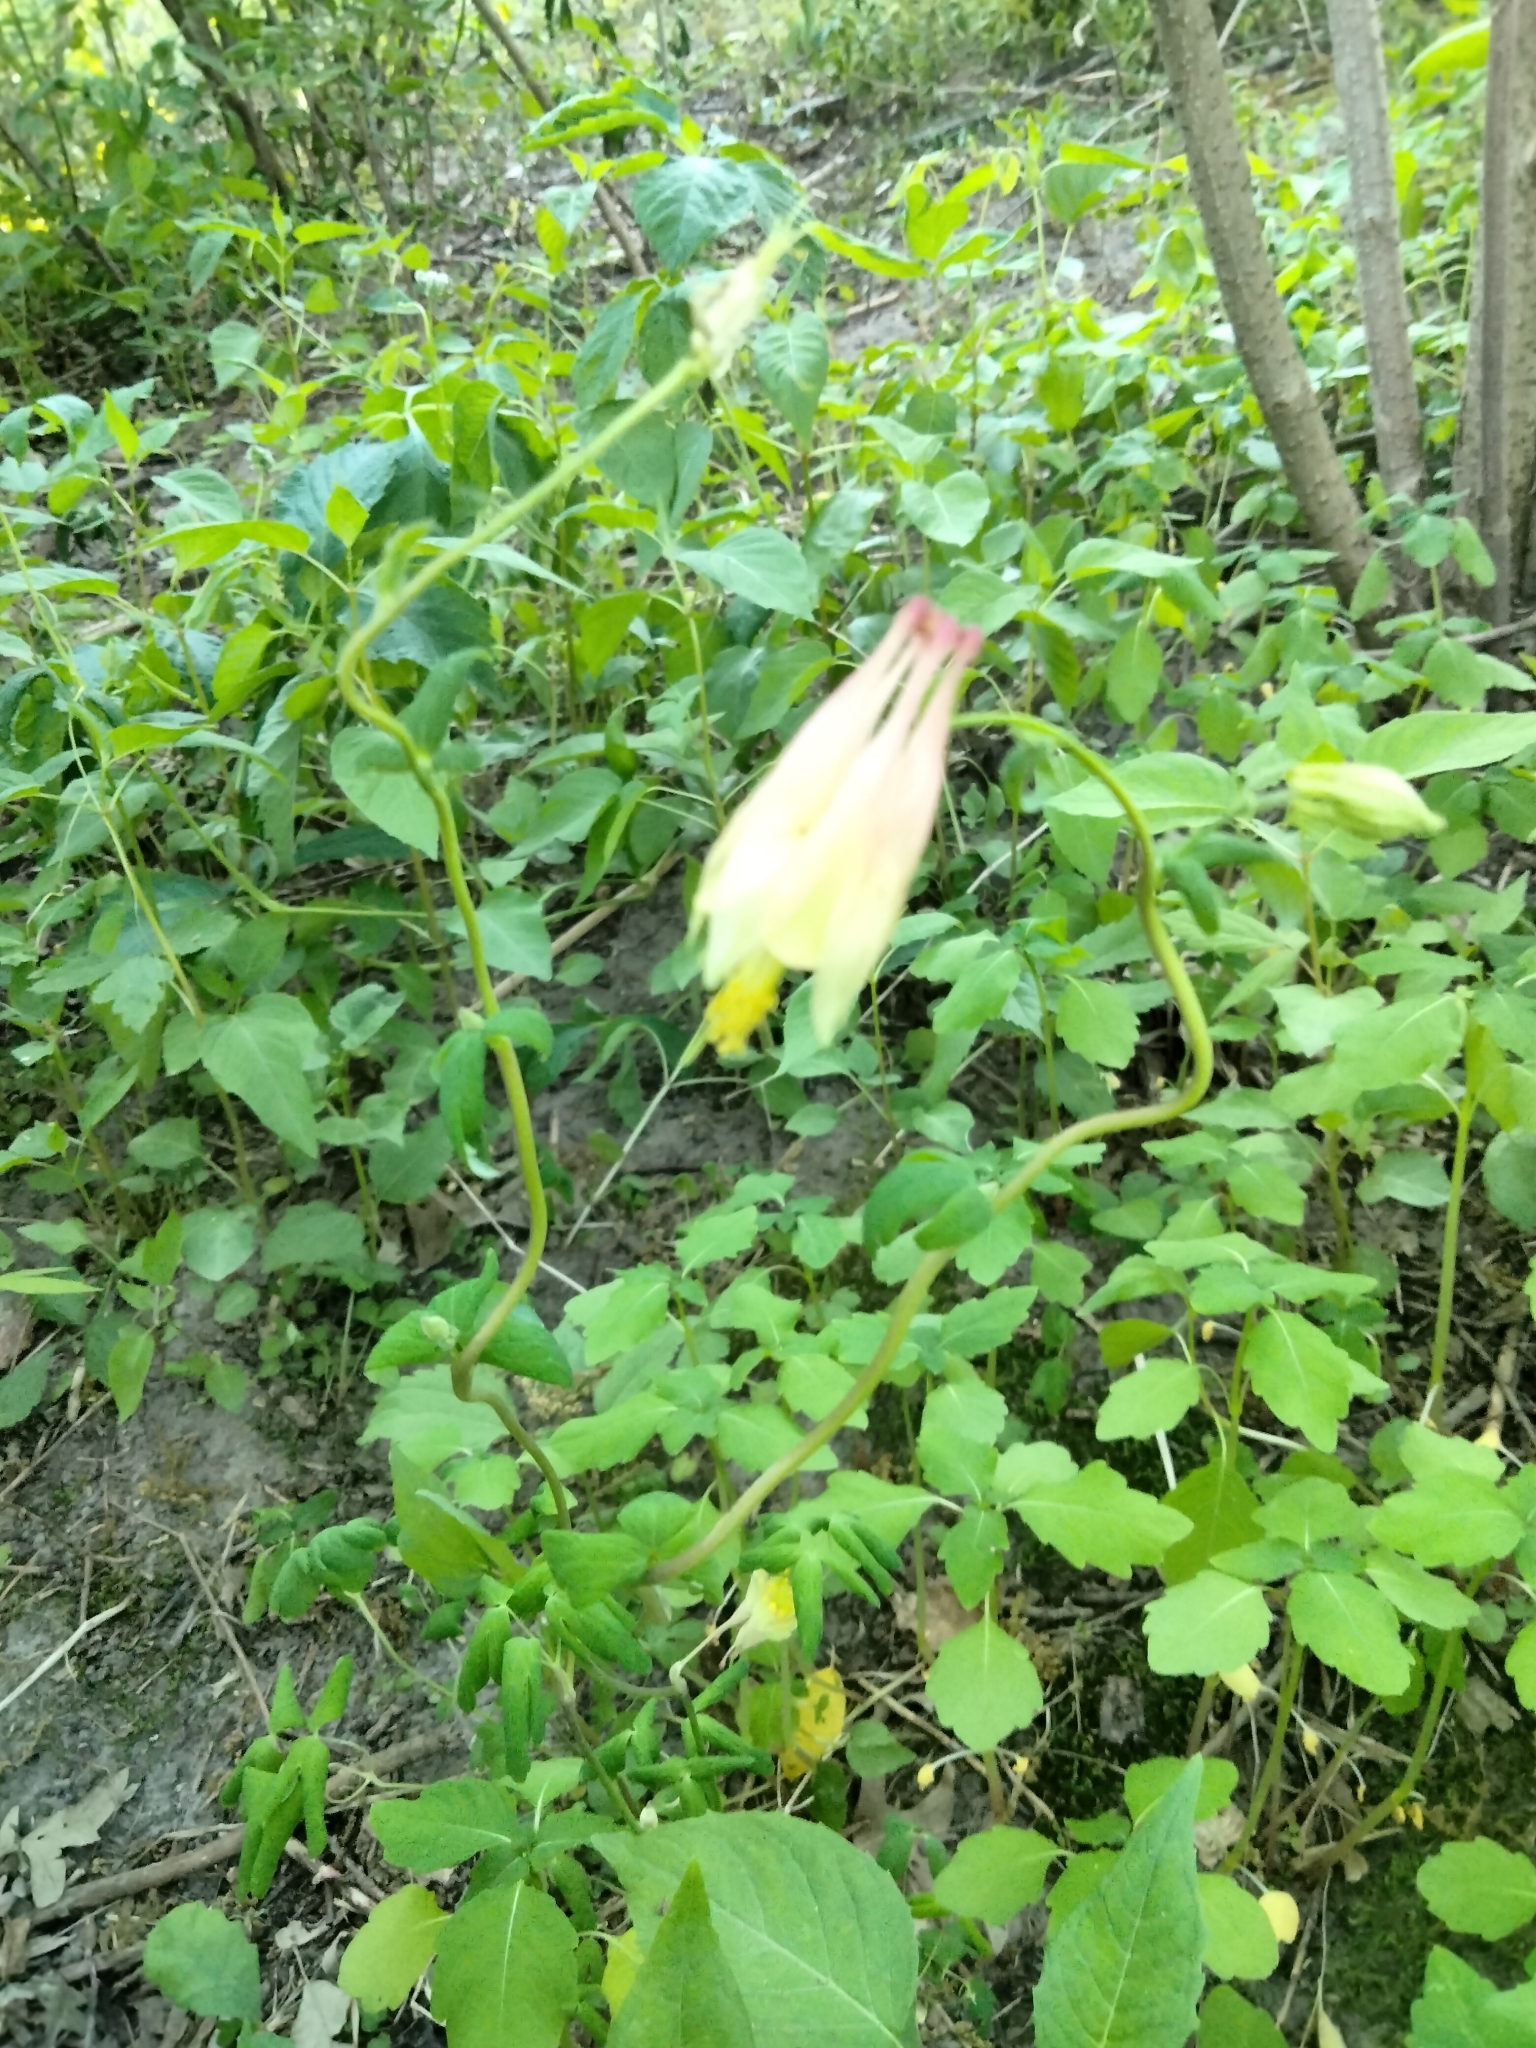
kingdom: Plantae
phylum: Tracheophyta
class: Magnoliopsida
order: Ranunculales
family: Ranunculaceae
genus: Aquilegia
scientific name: Aquilegia canadensis
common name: American columbine
